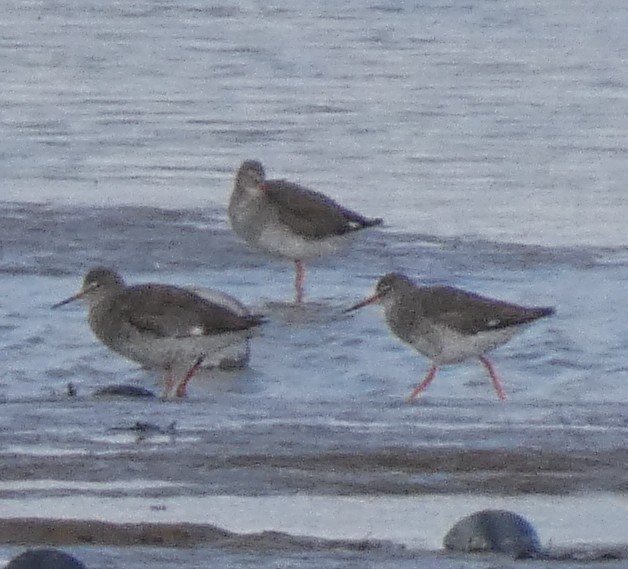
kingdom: Animalia
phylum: Chordata
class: Aves
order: Charadriiformes
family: Scolopacidae
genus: Tringa
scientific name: Tringa totanus
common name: Common redshank
